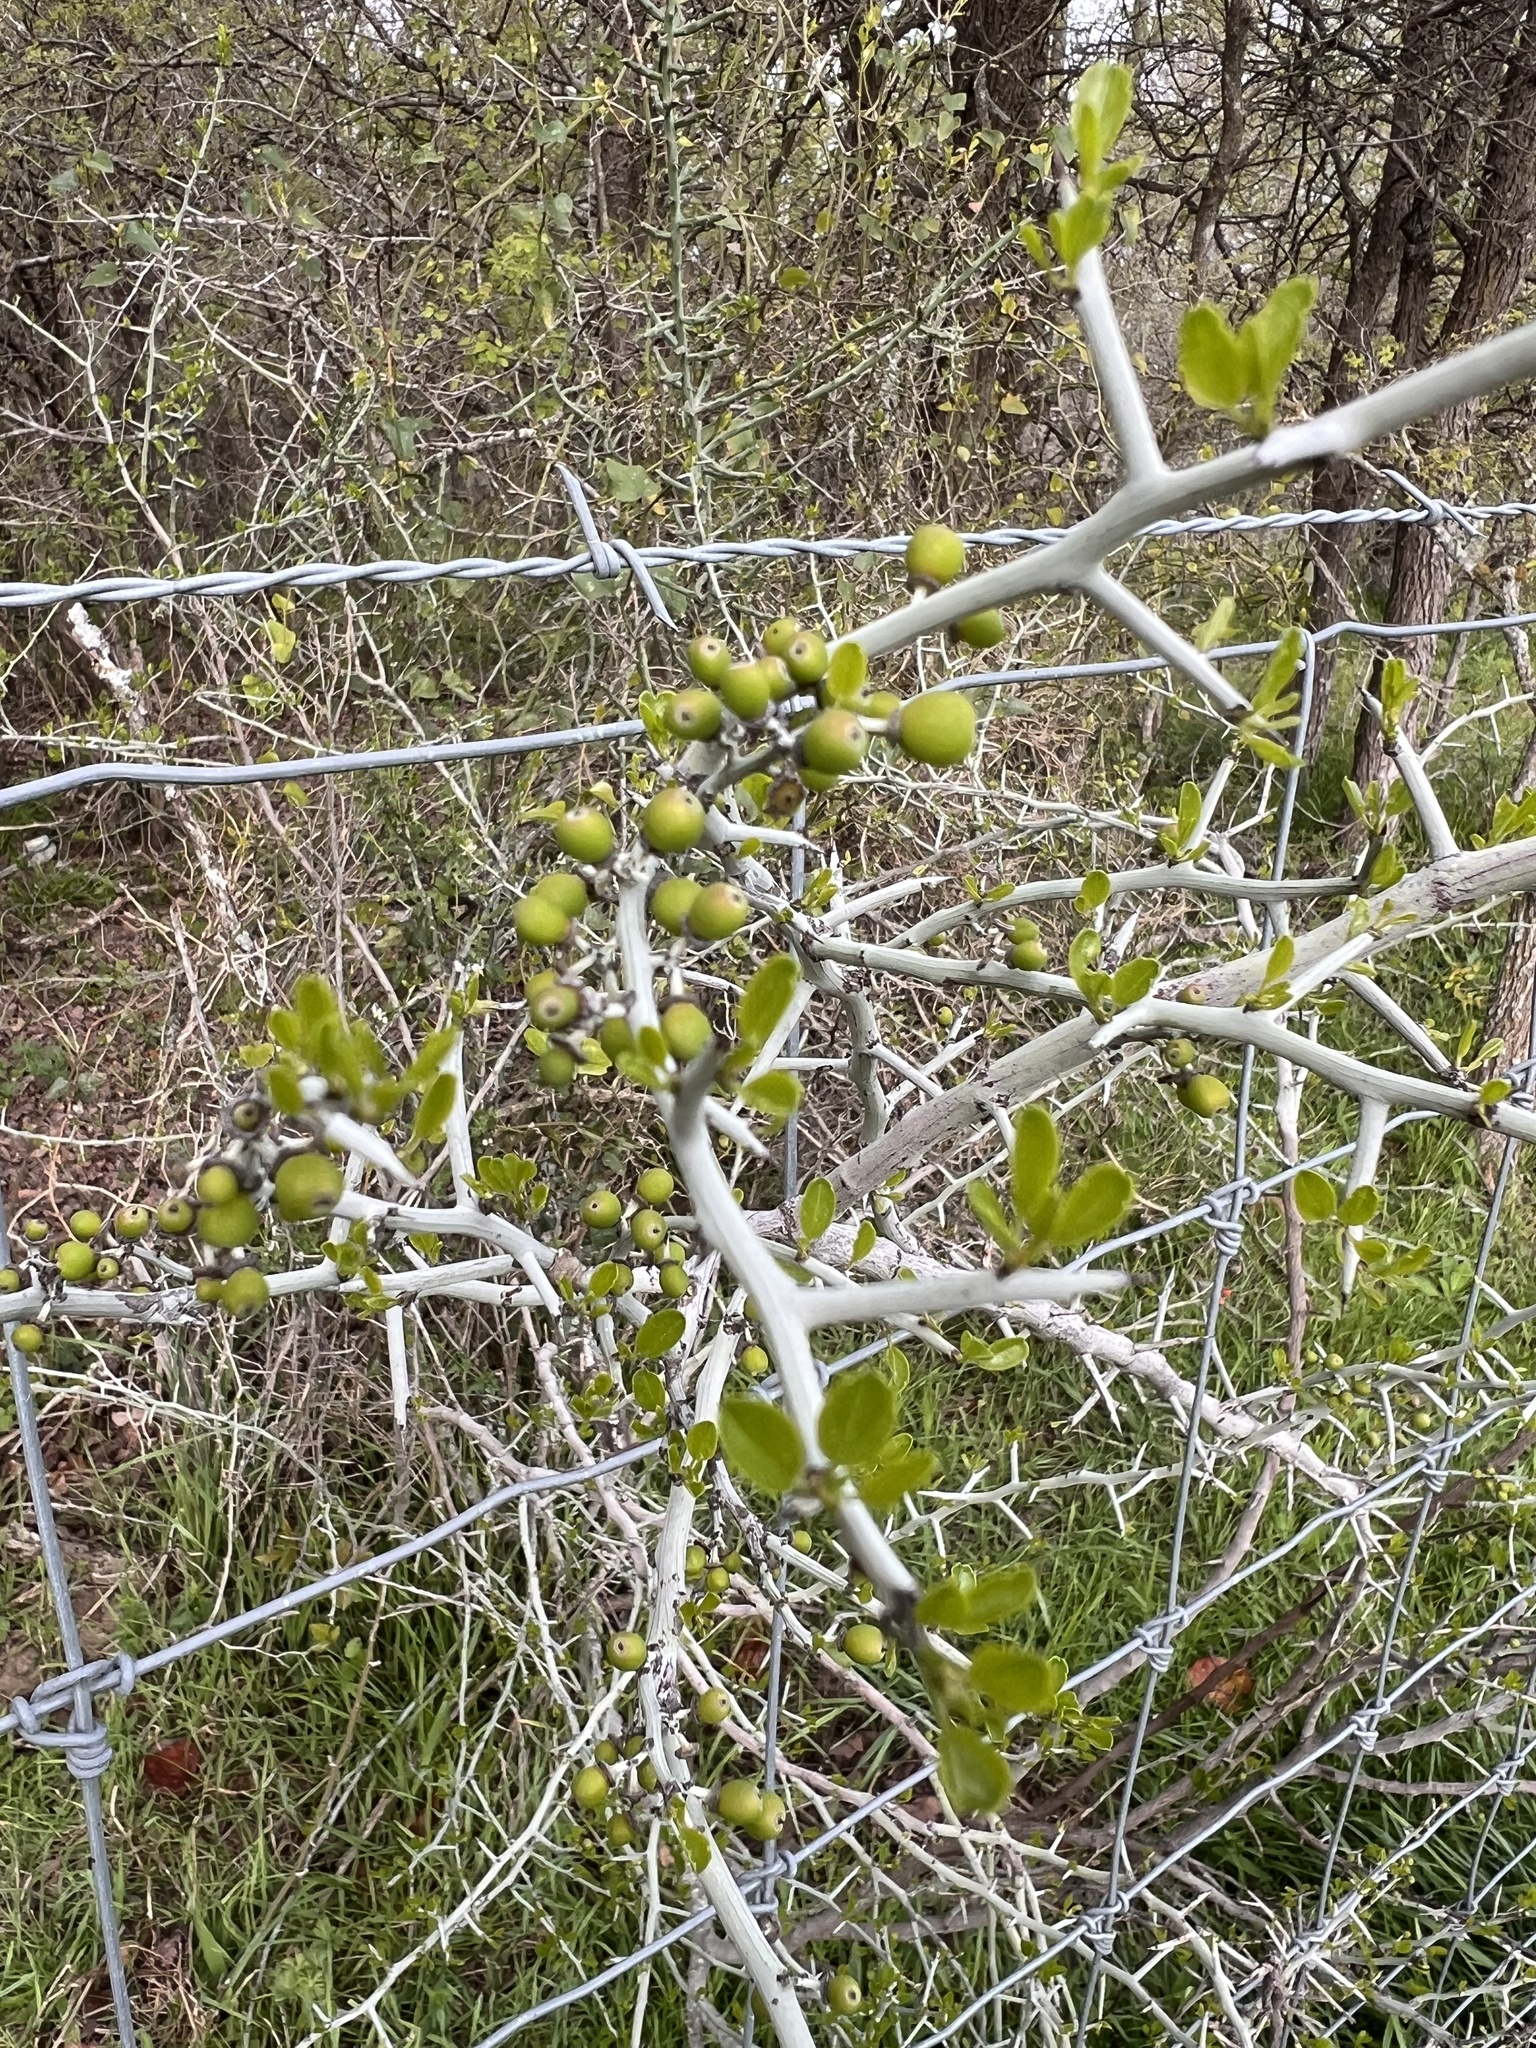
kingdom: Plantae
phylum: Tracheophyta
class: Magnoliopsida
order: Rosales
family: Rhamnaceae
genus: Sarcomphalus
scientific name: Sarcomphalus obtusifolius
